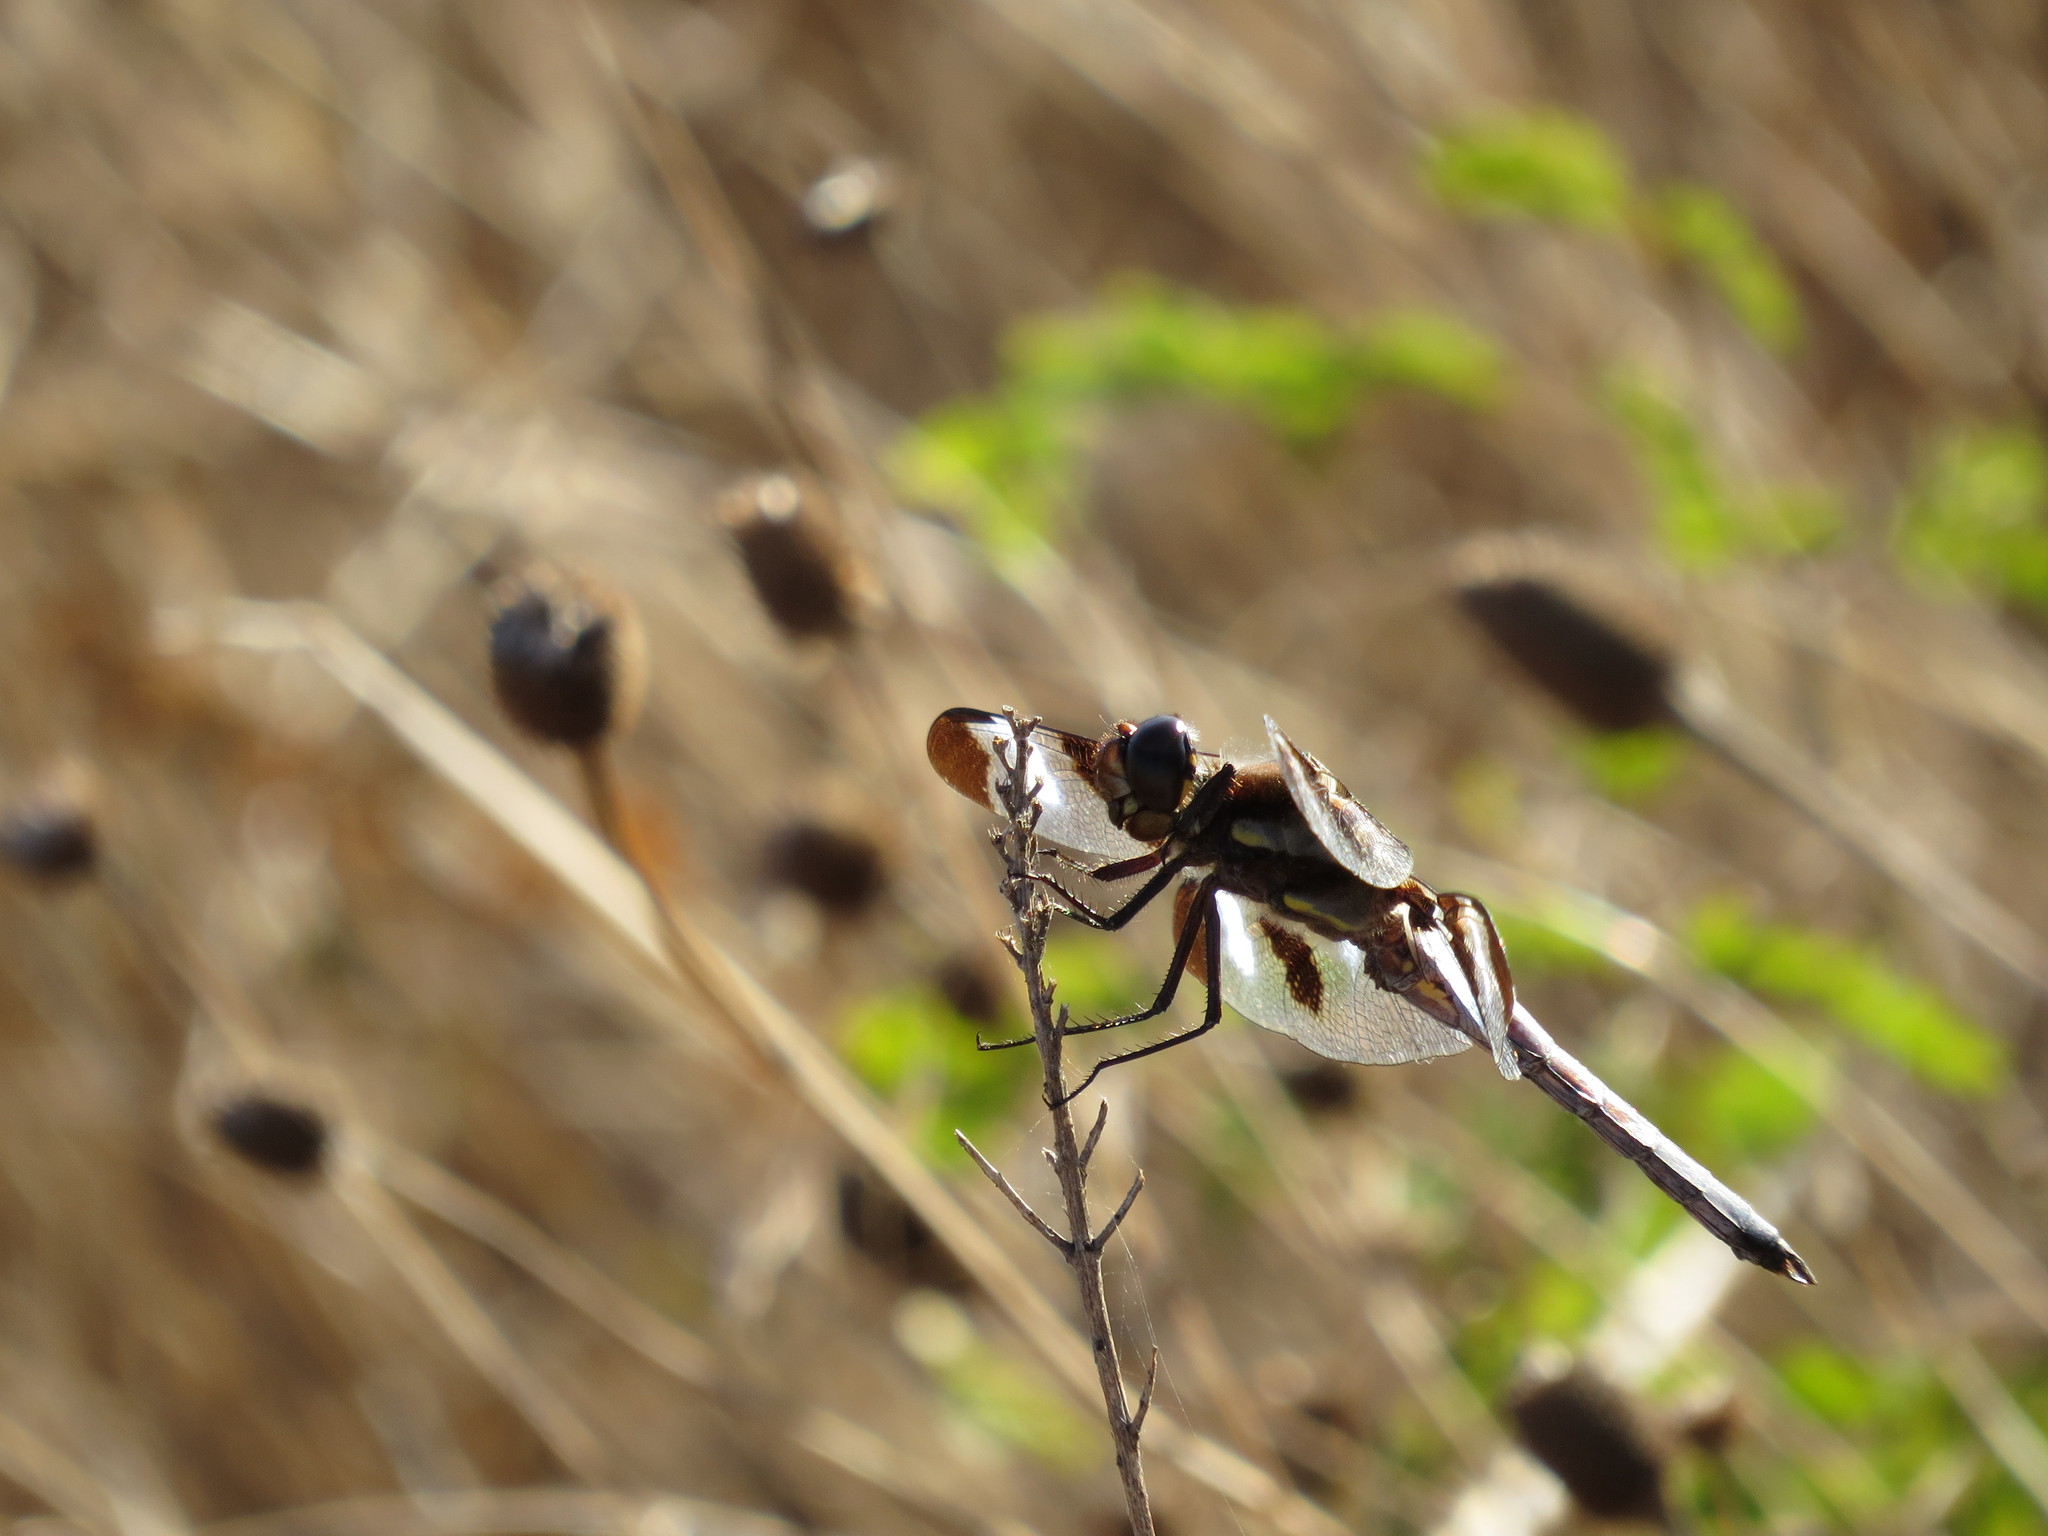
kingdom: Animalia
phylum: Arthropoda
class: Insecta
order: Odonata
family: Libellulidae
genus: Libellula
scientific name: Libellula pulchella
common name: Twelve-spotted skimmer
